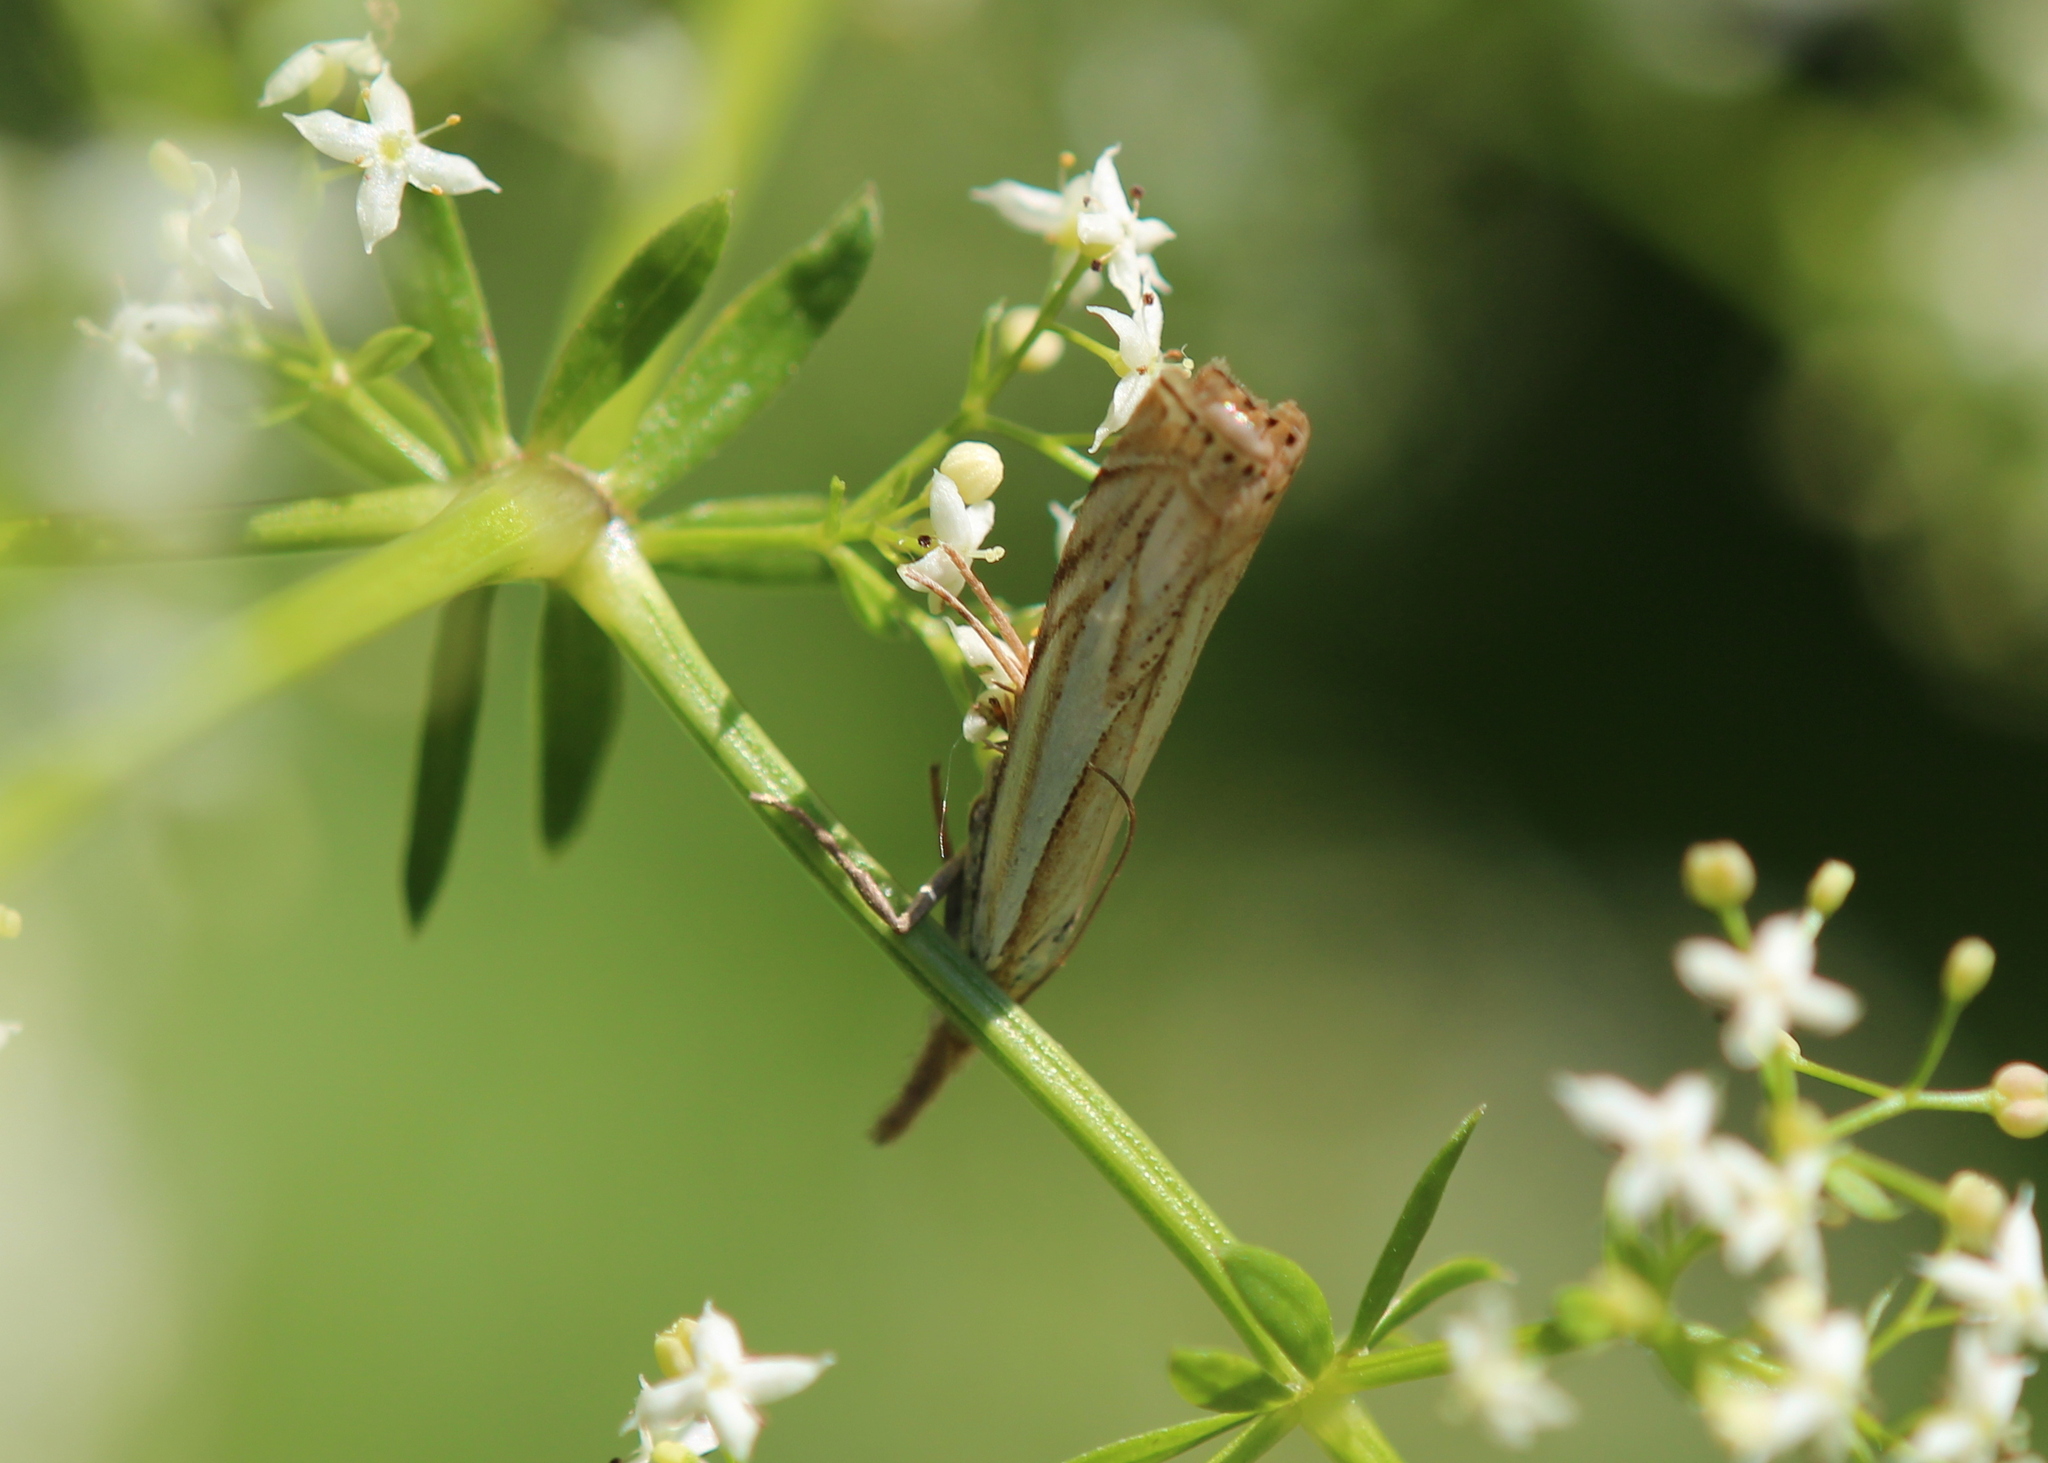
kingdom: Animalia
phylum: Arthropoda
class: Insecta
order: Lepidoptera
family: Crambidae
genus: Crambus
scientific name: Crambus saltuellus
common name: Pasture grass-veneer
